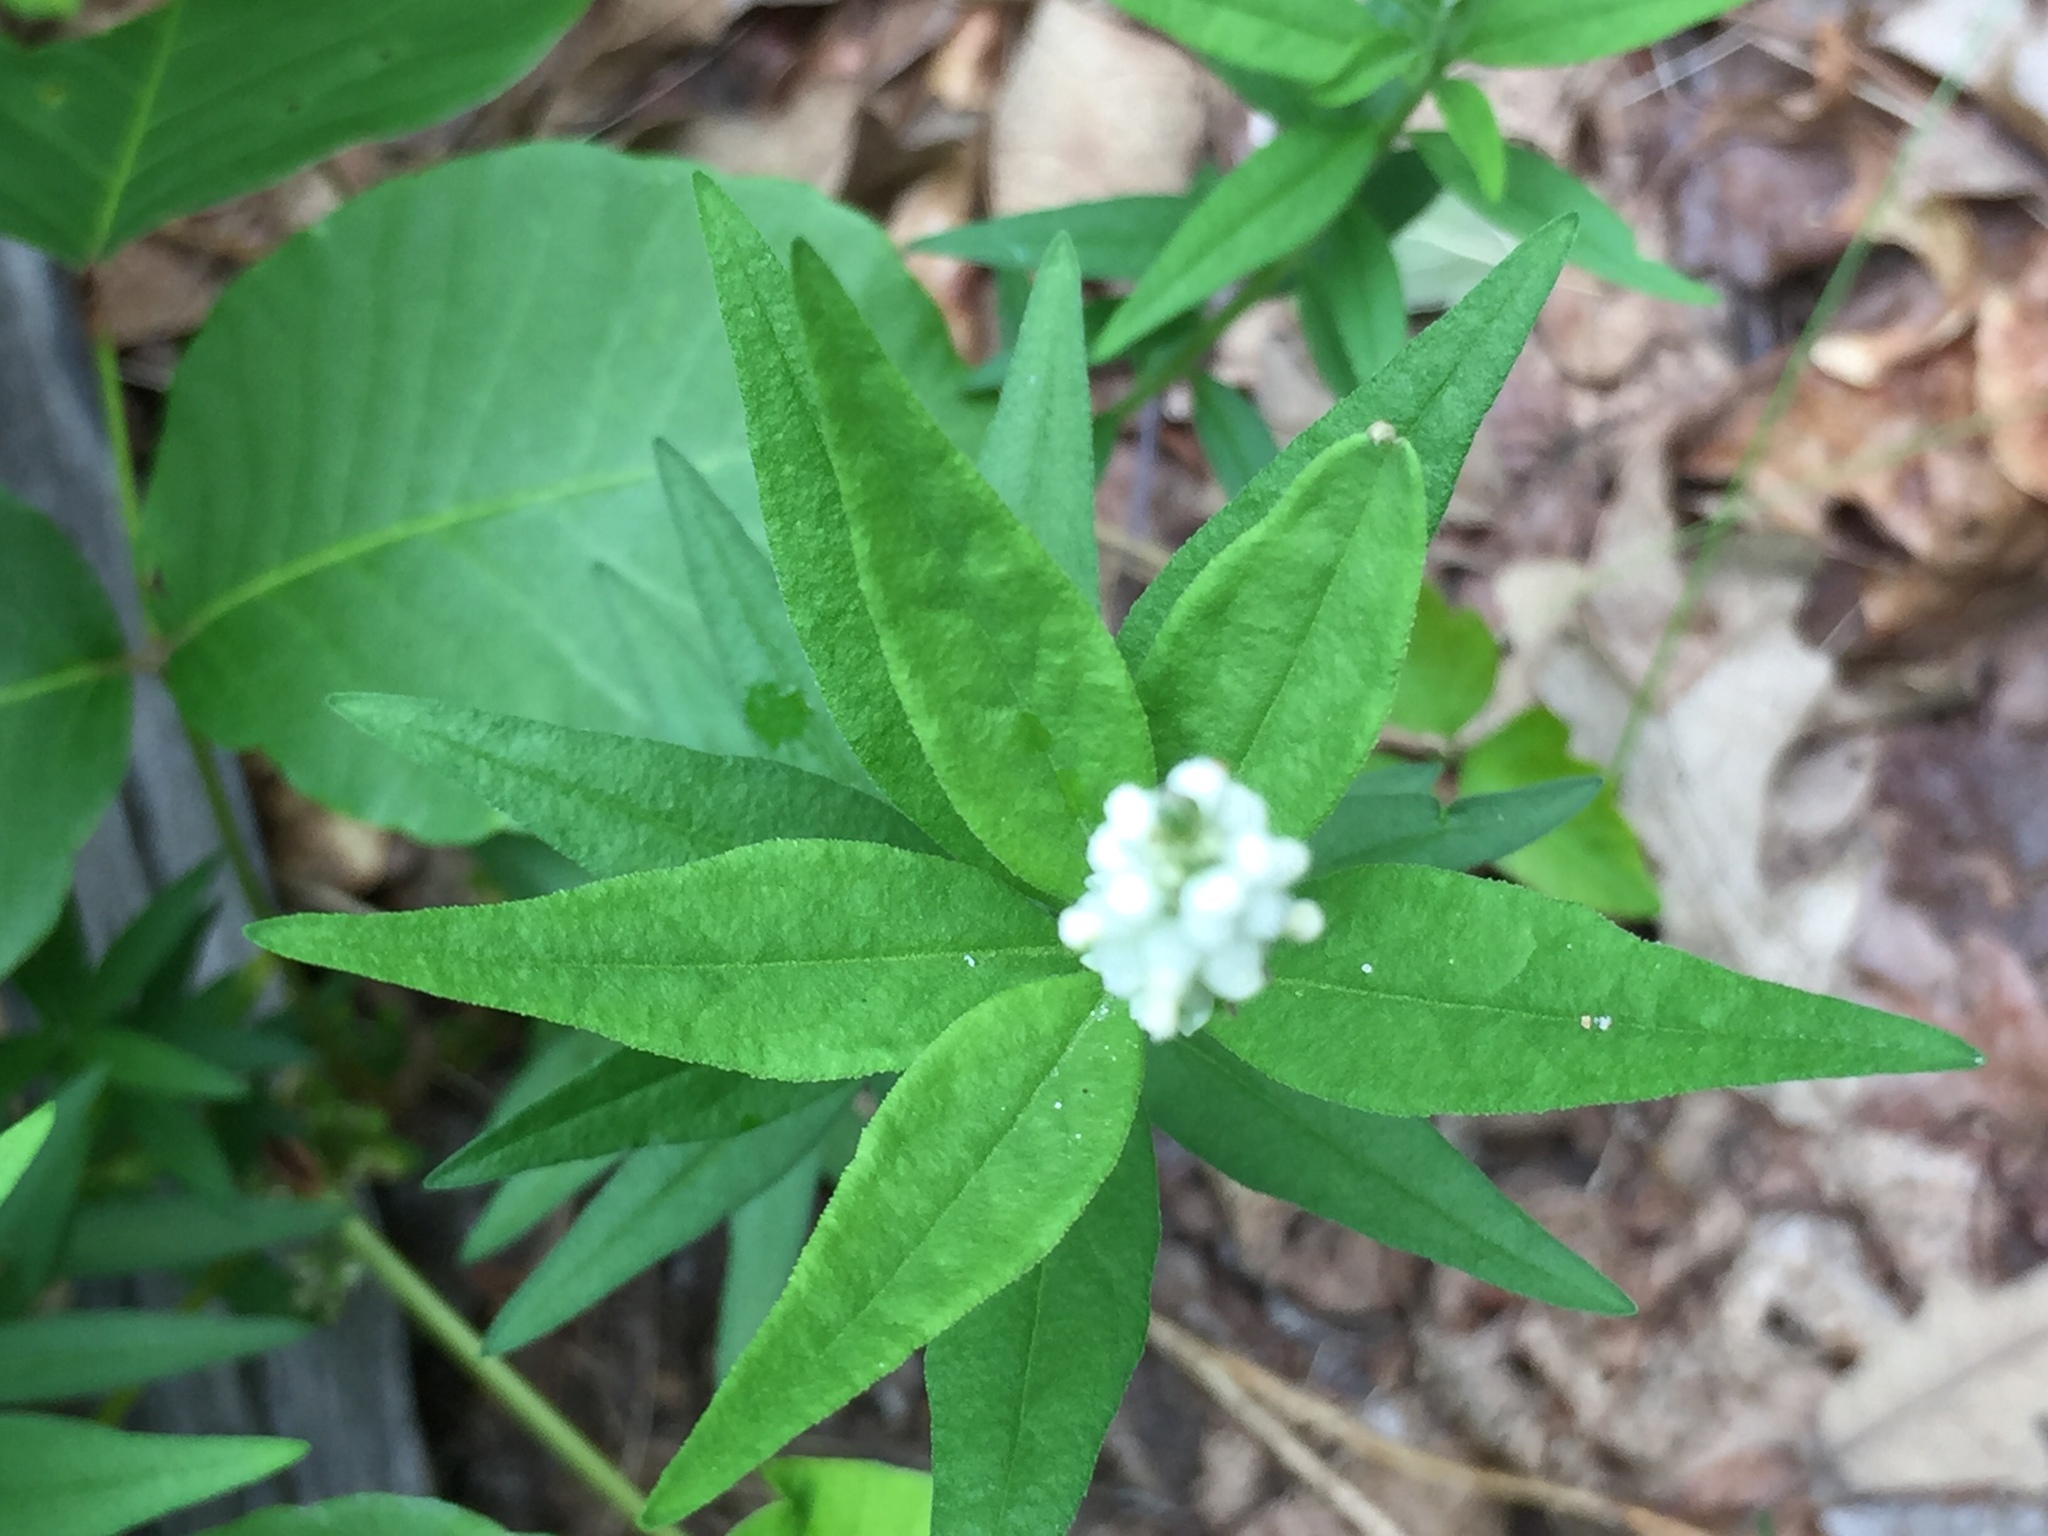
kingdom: Plantae
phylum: Tracheophyta
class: Magnoliopsida
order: Fabales
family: Polygalaceae
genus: Polygala
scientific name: Polygala senega
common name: Seneca snakeroot
